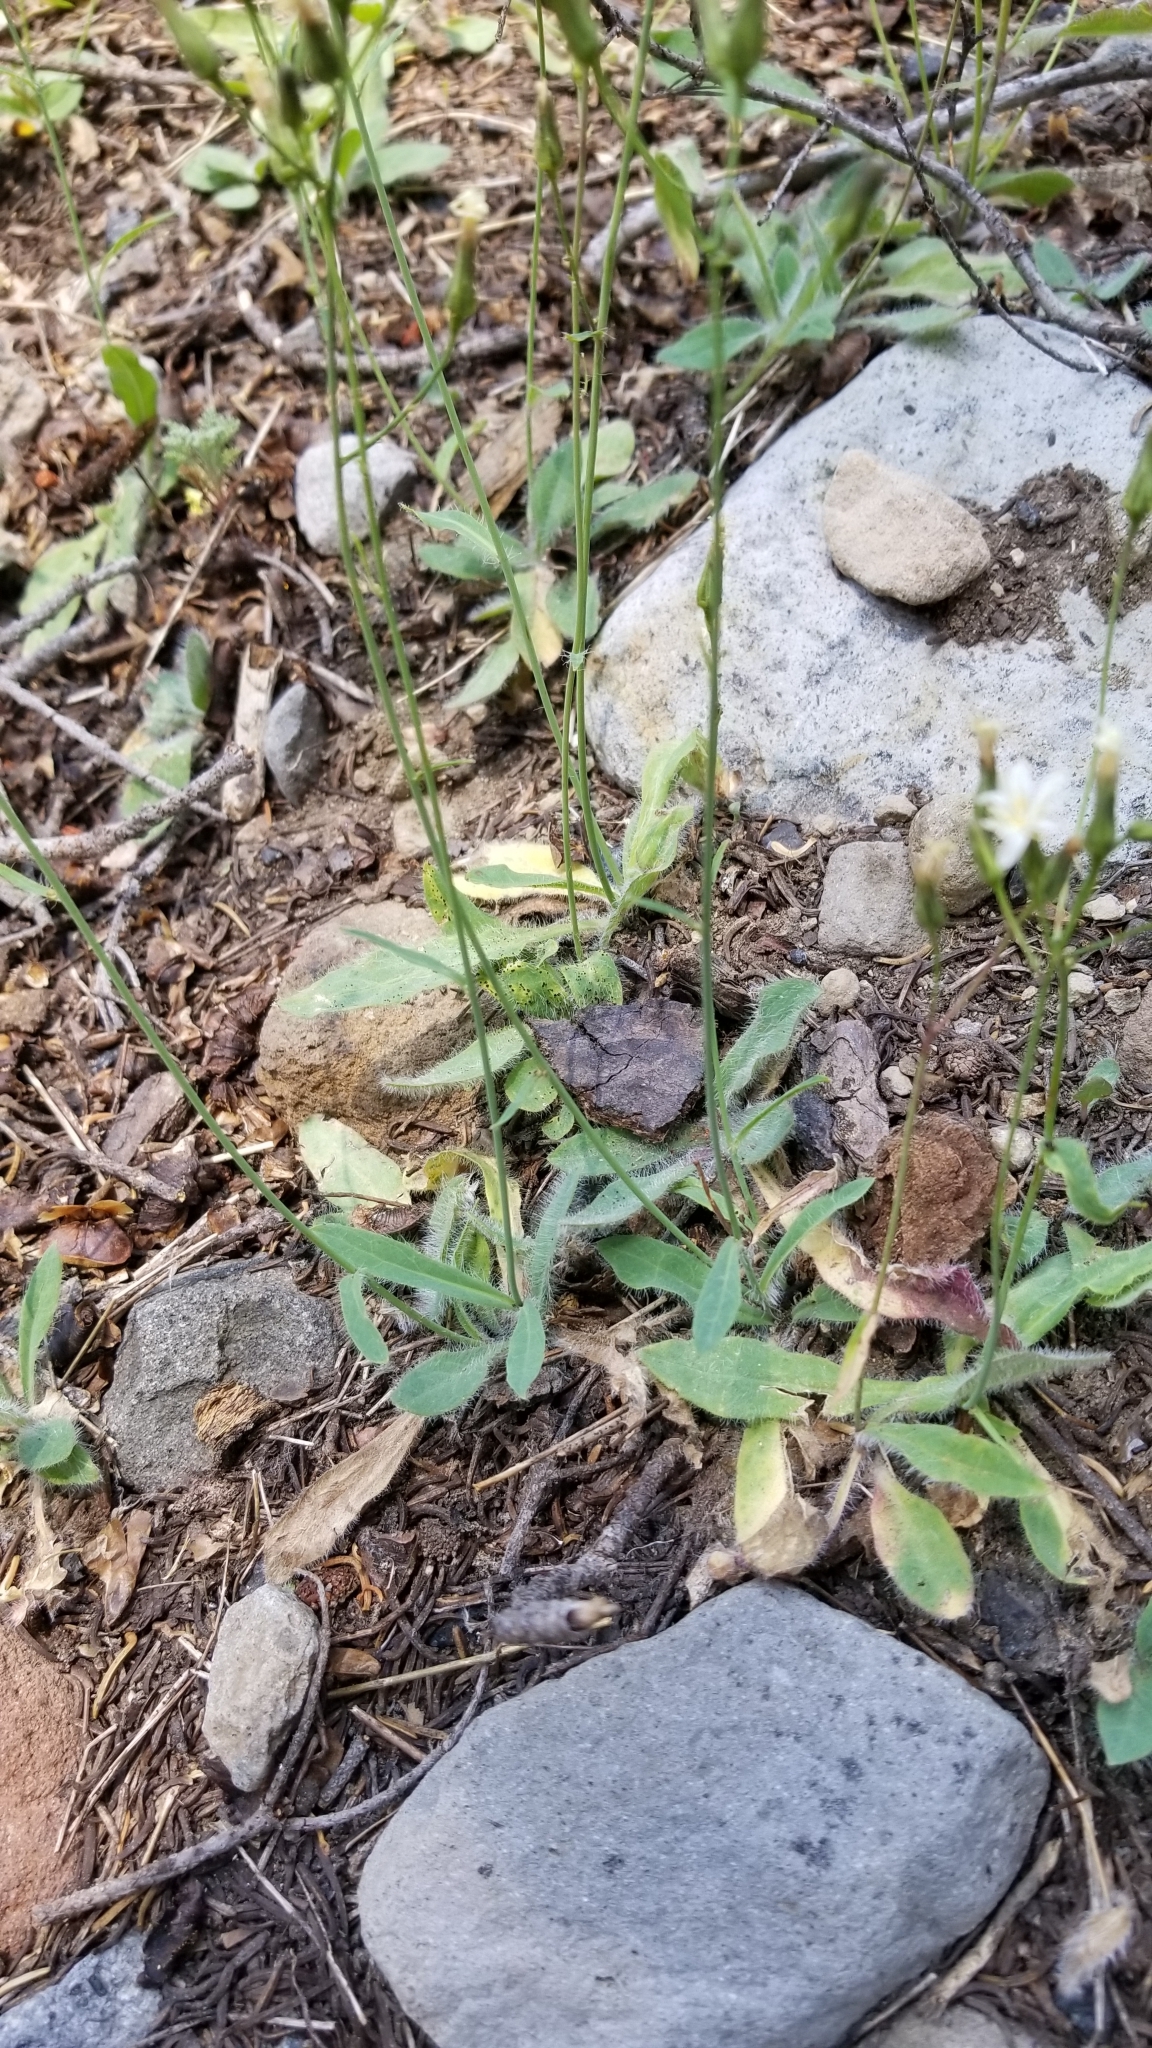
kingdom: Plantae
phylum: Tracheophyta
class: Magnoliopsida
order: Asterales
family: Asteraceae
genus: Hieracium
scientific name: Hieracium albiflorum
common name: White hawkweed
